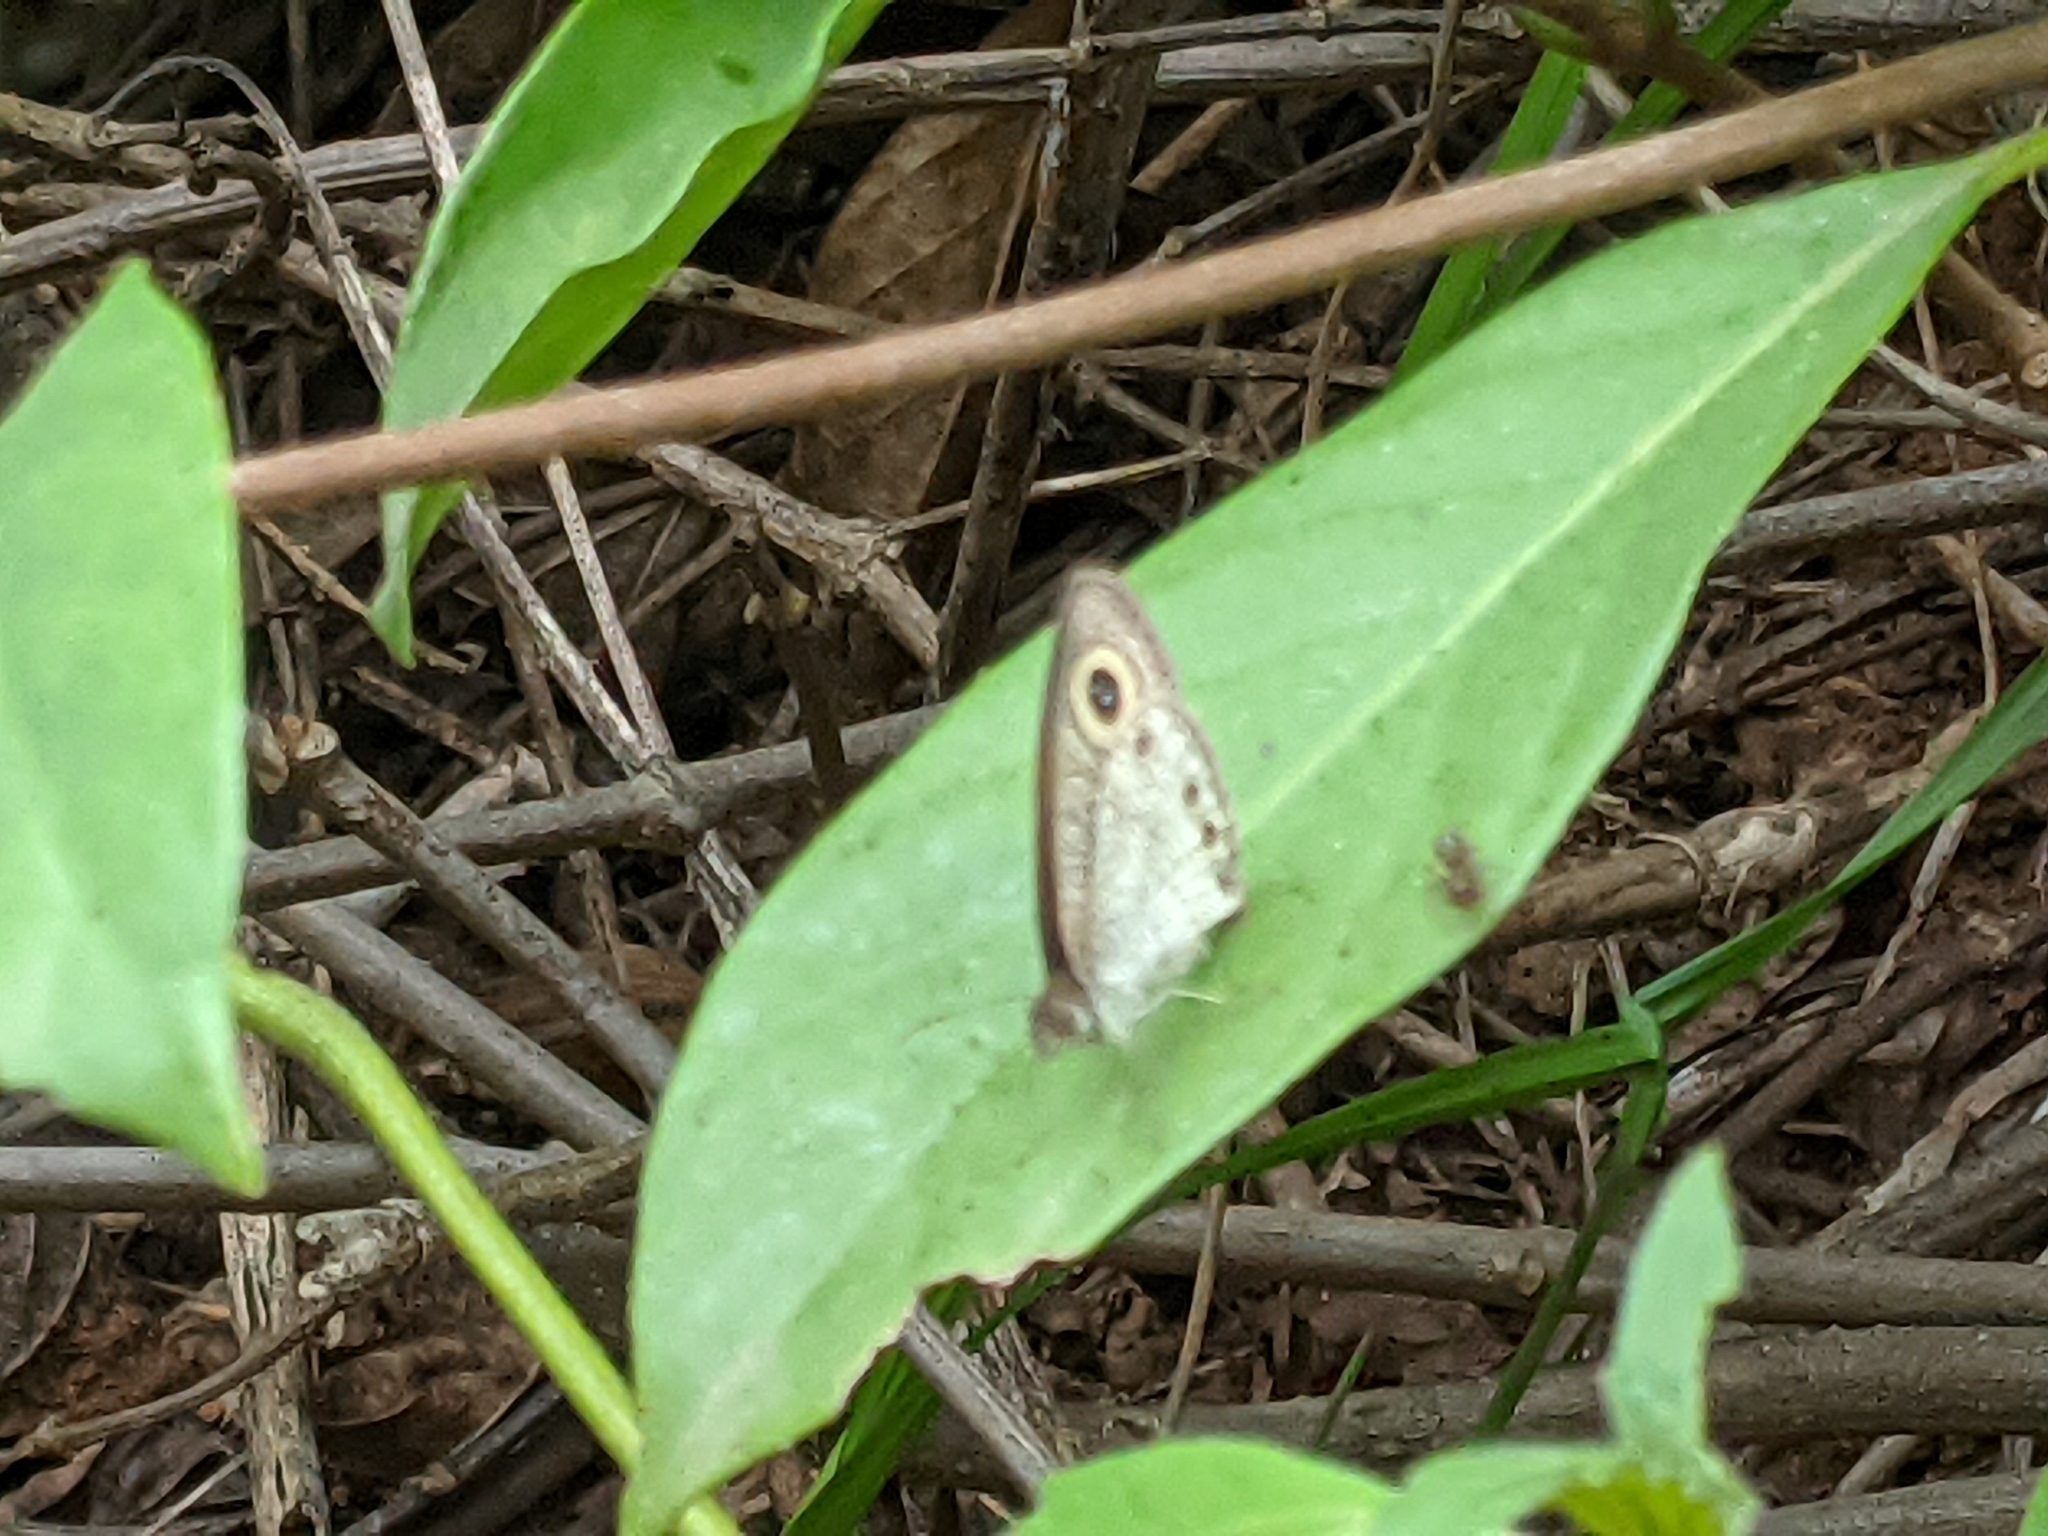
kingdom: Animalia
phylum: Arthropoda
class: Insecta
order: Lepidoptera
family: Nymphalidae
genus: Ypthima
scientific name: Ypthima huebneri
